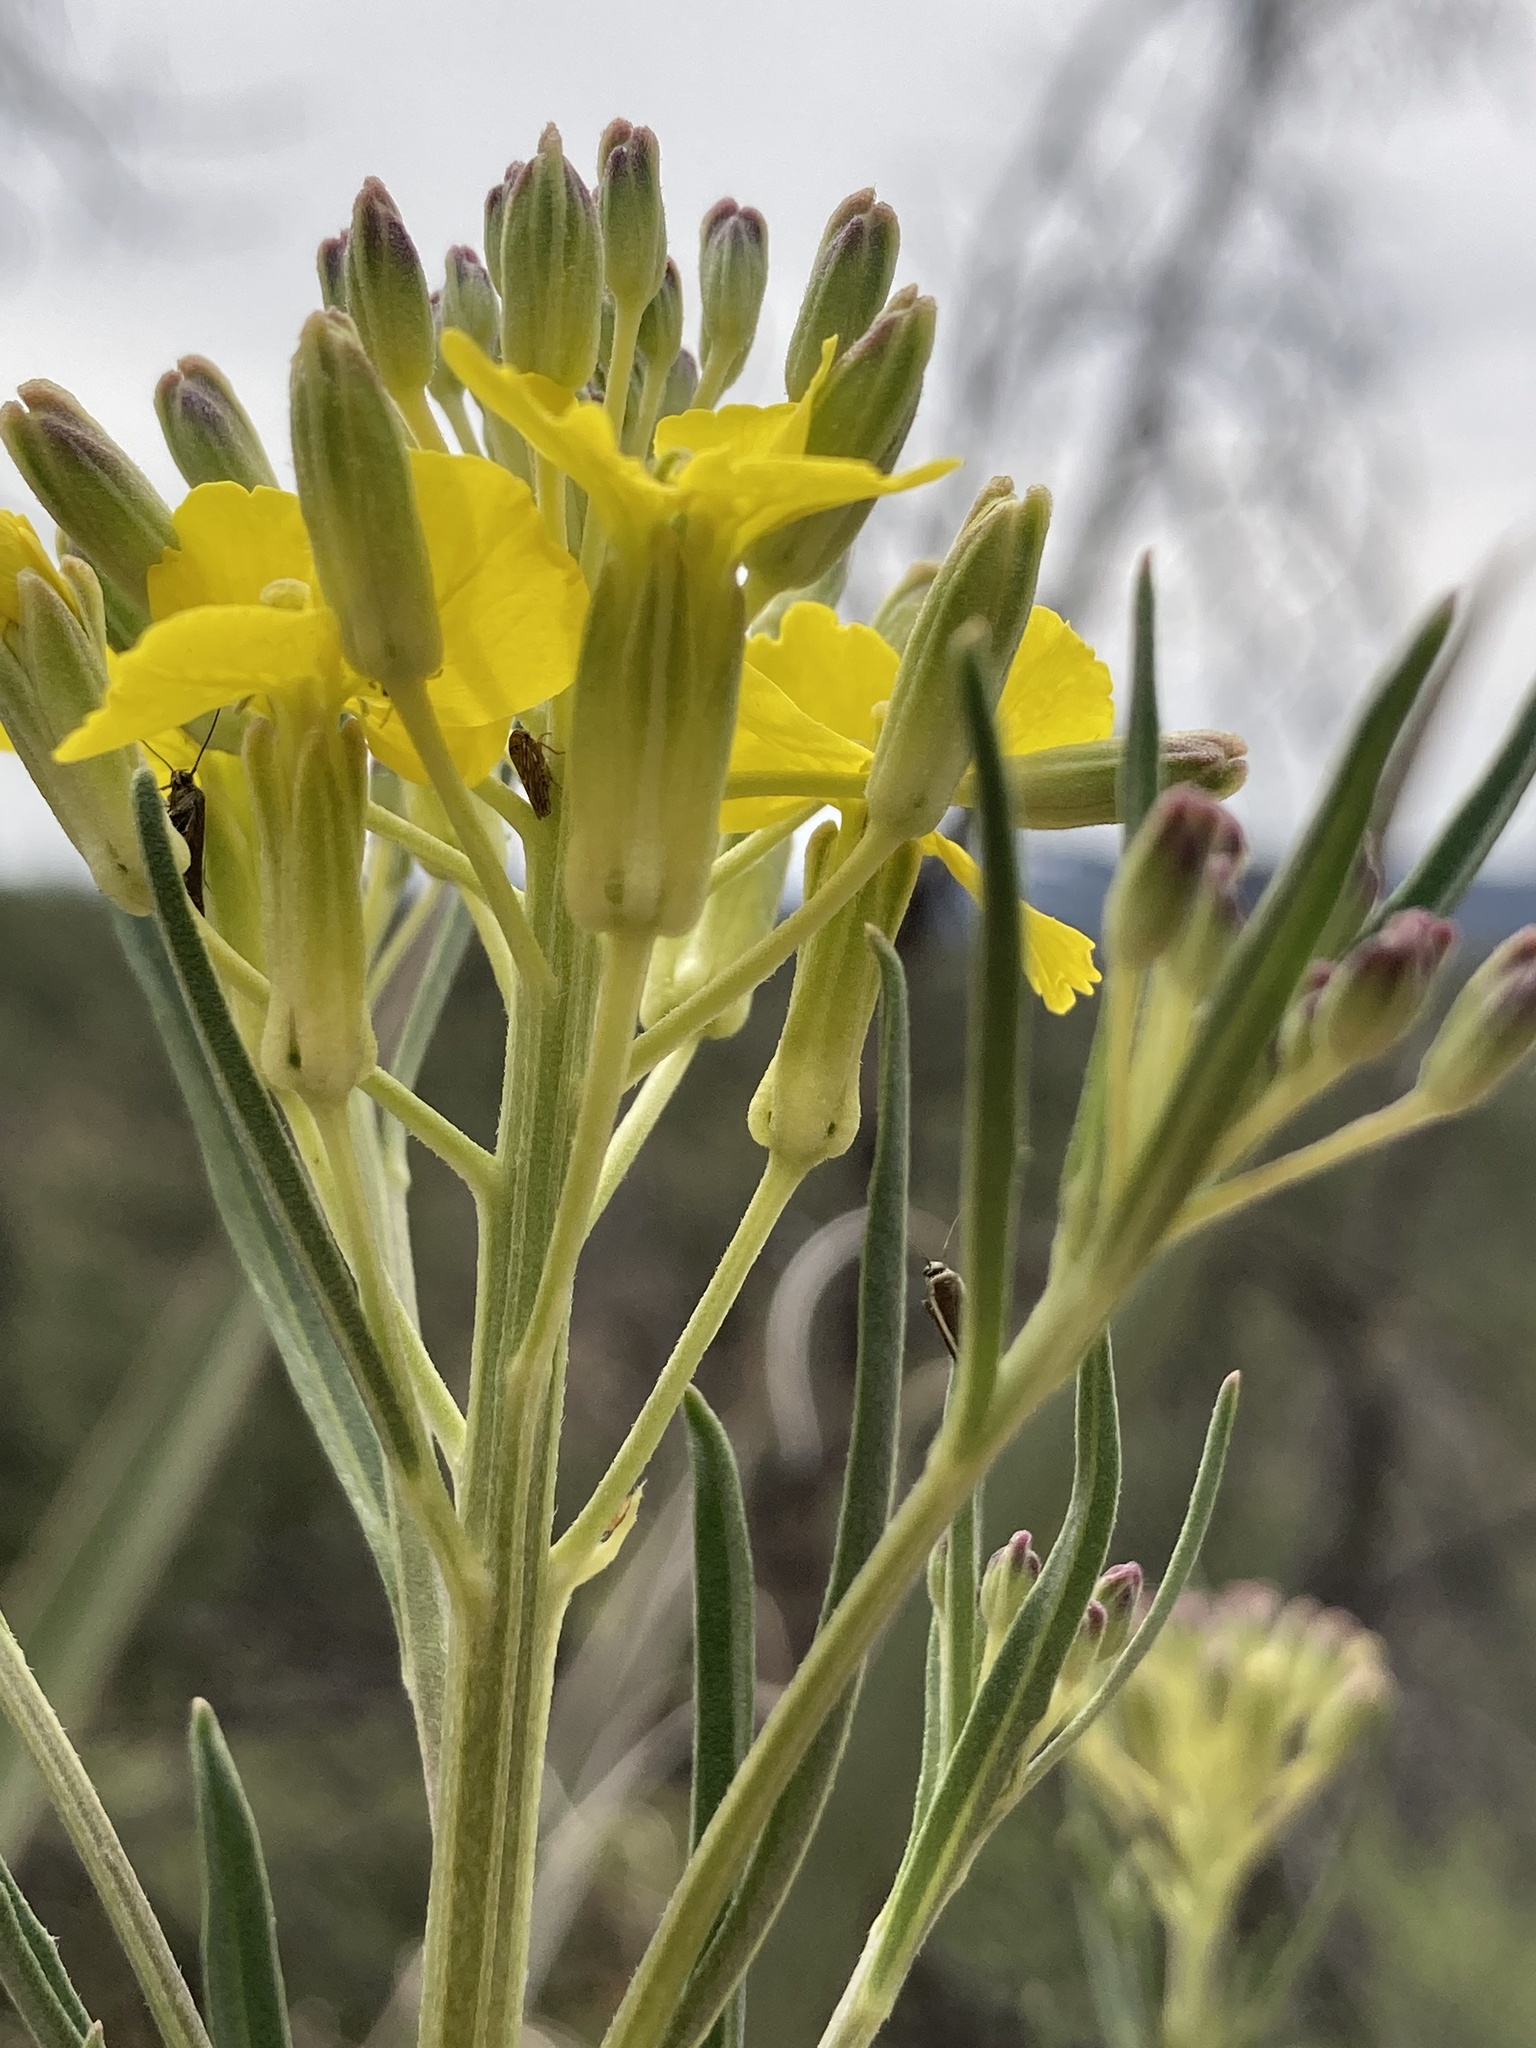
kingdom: Plantae
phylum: Tracheophyta
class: Magnoliopsida
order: Brassicales
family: Brassicaceae
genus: Erysimum
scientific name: Erysimum capitatum
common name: Western wallflower
